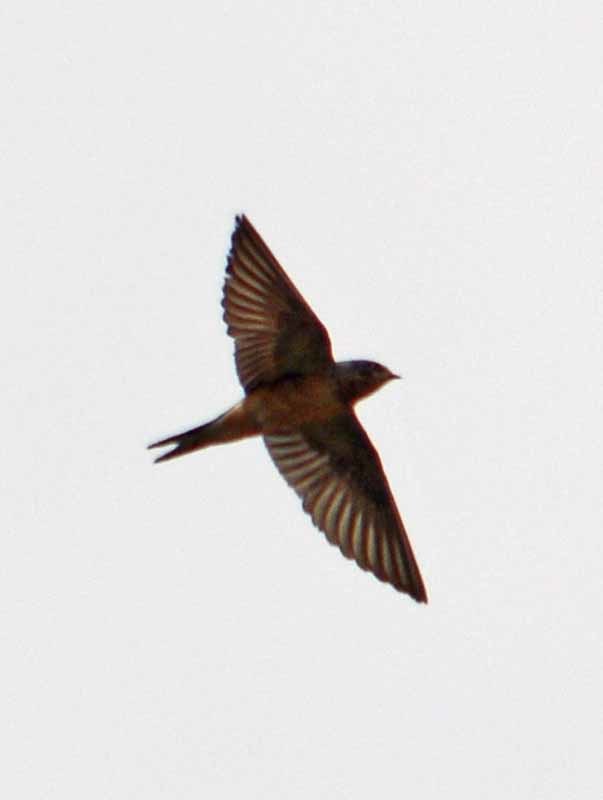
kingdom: Animalia
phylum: Chordata
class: Aves
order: Passeriformes
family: Hirundinidae
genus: Hirundo
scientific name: Hirundo rustica
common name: Barn swallow
